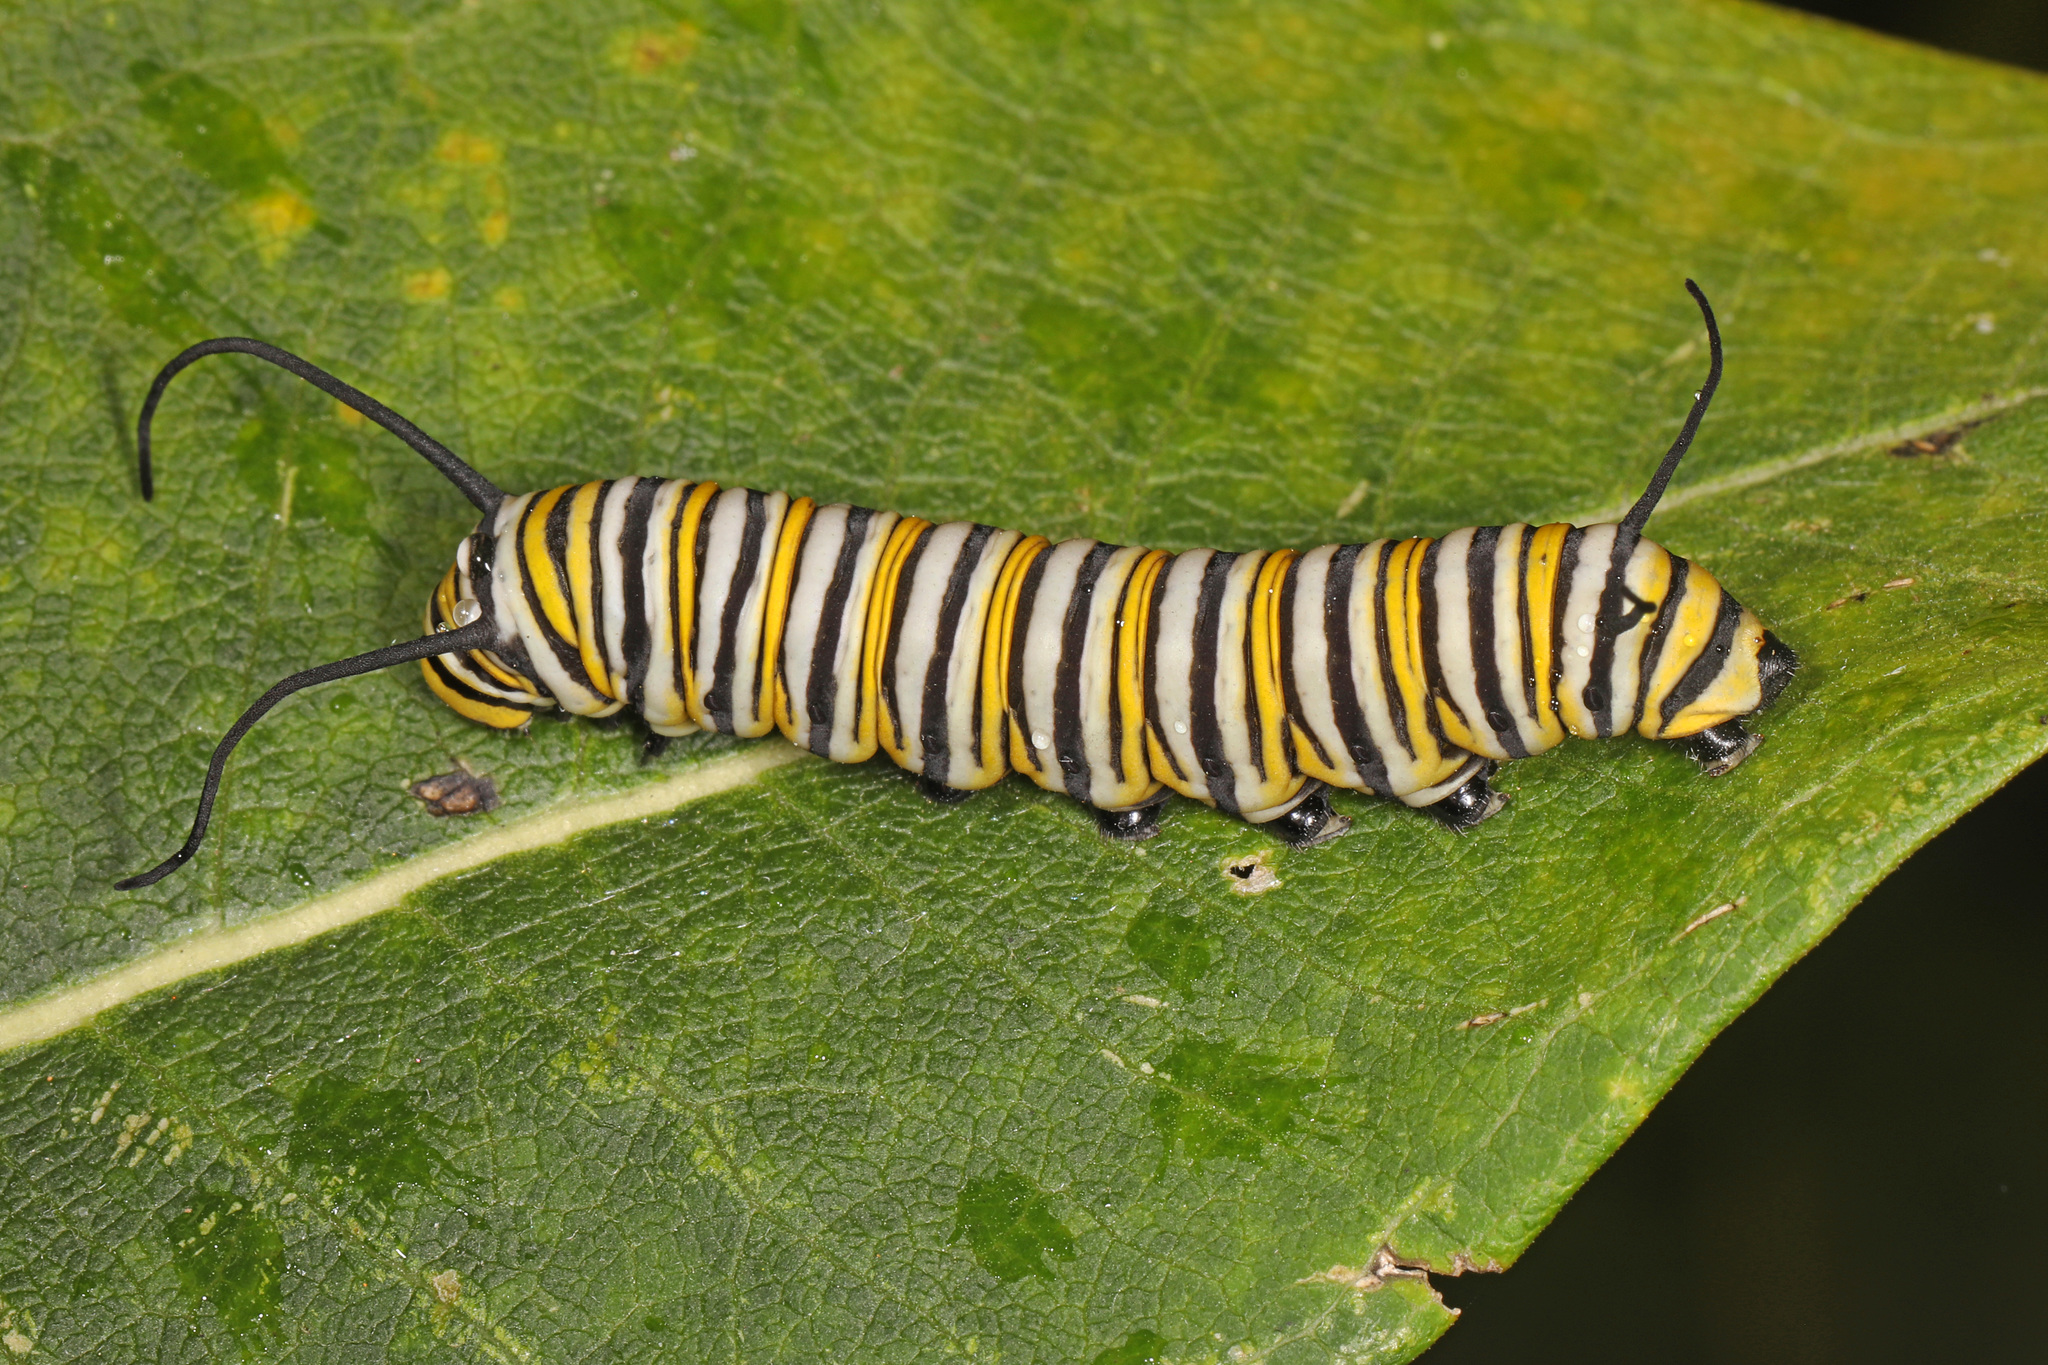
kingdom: Animalia
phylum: Arthropoda
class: Insecta
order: Lepidoptera
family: Nymphalidae
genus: Danaus
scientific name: Danaus plexippus
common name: Monarch
